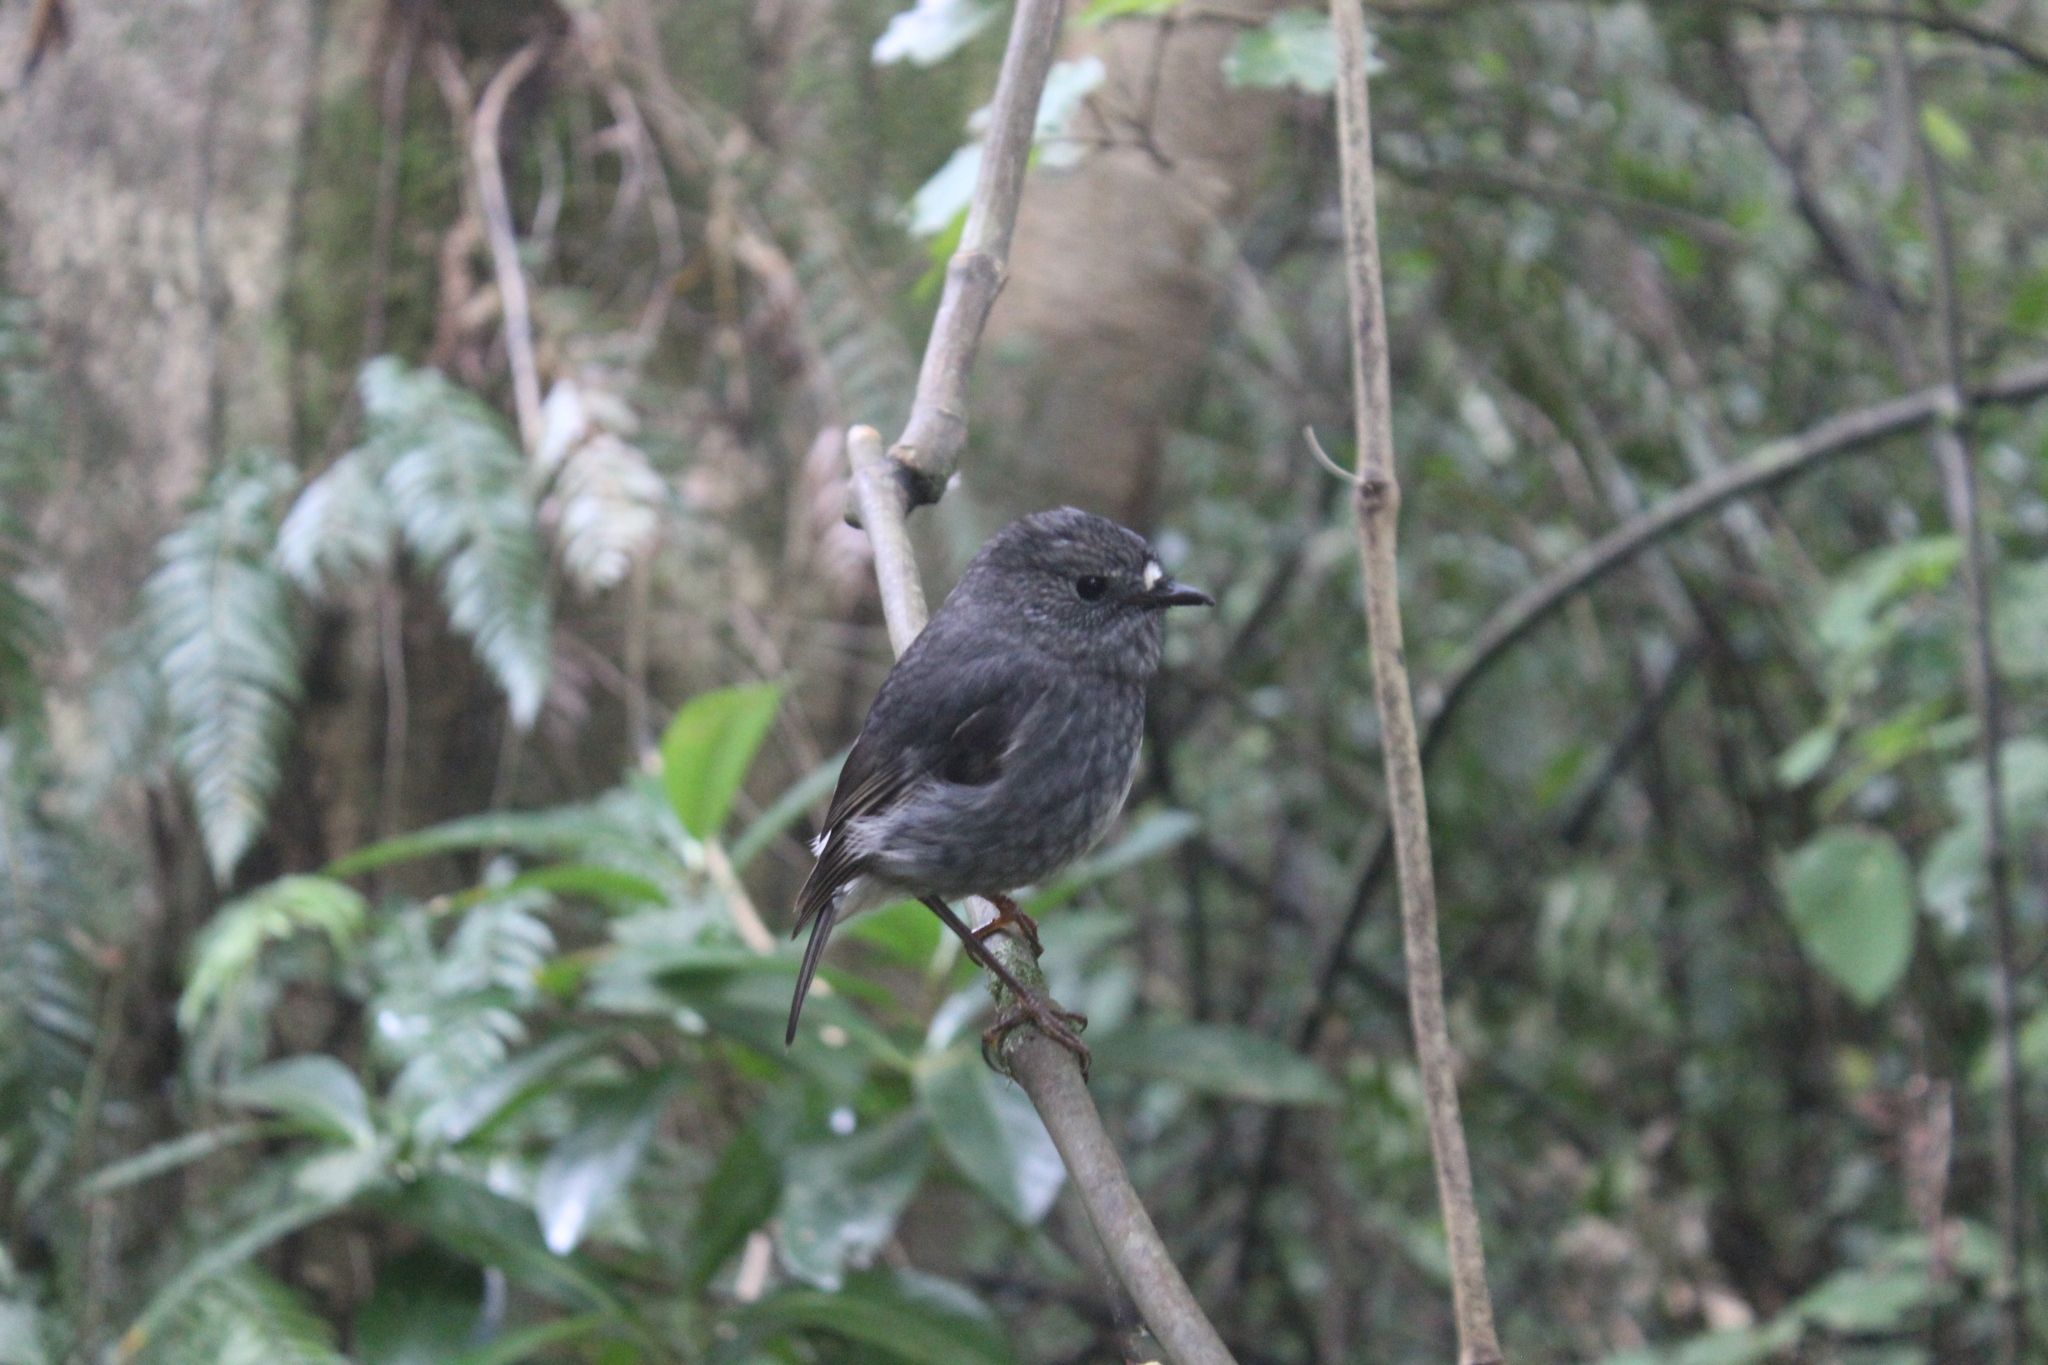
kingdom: Animalia
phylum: Chordata
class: Aves
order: Passeriformes
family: Petroicidae
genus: Petroica
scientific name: Petroica australis
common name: New zealand robin
